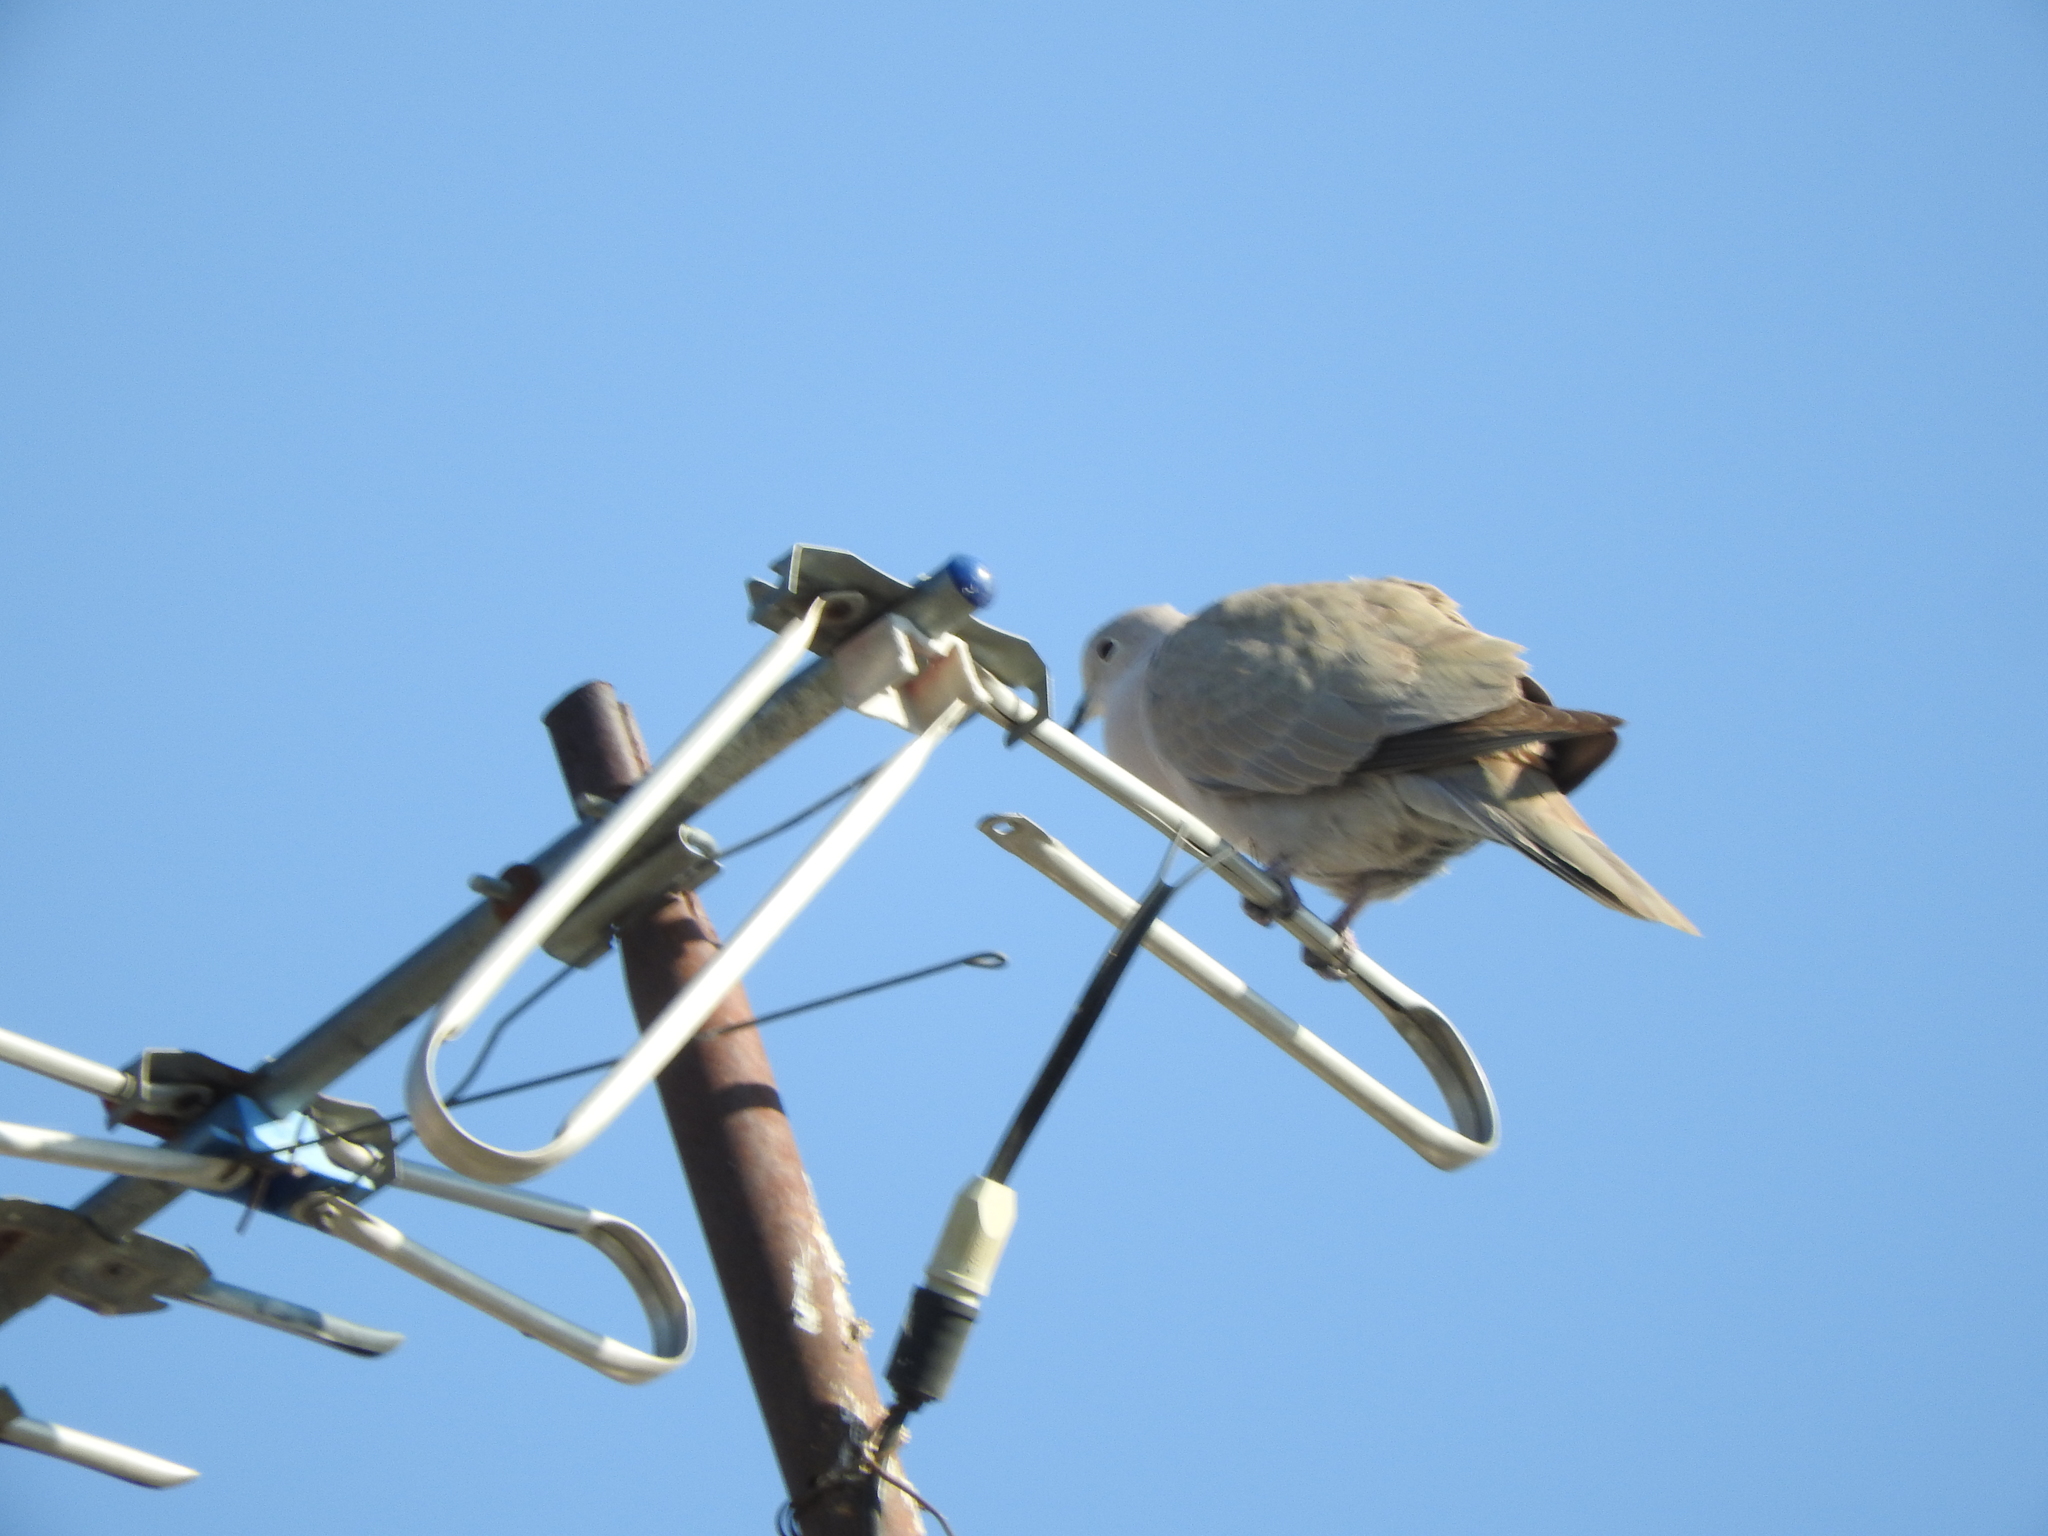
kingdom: Animalia
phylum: Chordata
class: Aves
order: Columbiformes
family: Columbidae
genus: Streptopelia
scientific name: Streptopelia decaocto
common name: Eurasian collared dove
